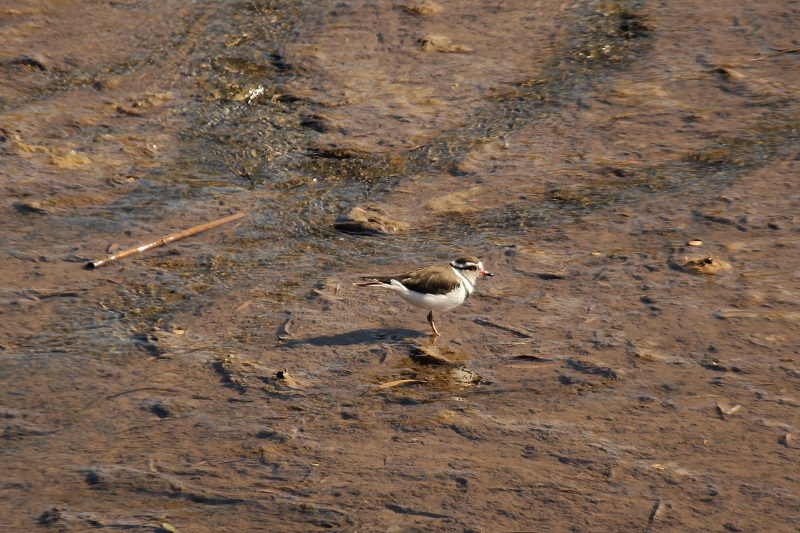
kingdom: Animalia
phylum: Chordata
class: Aves
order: Charadriiformes
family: Charadriidae
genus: Charadrius
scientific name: Charadrius tricollaris
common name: Three-banded plover
